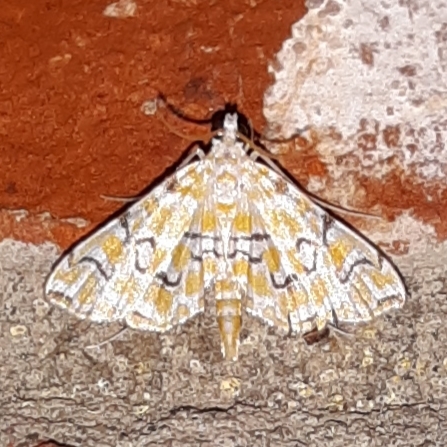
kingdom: Animalia
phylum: Arthropoda
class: Insecta
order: Lepidoptera
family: Crambidae
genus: Elophila
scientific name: Elophila icciusalis
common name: Pondside pyralid moth
